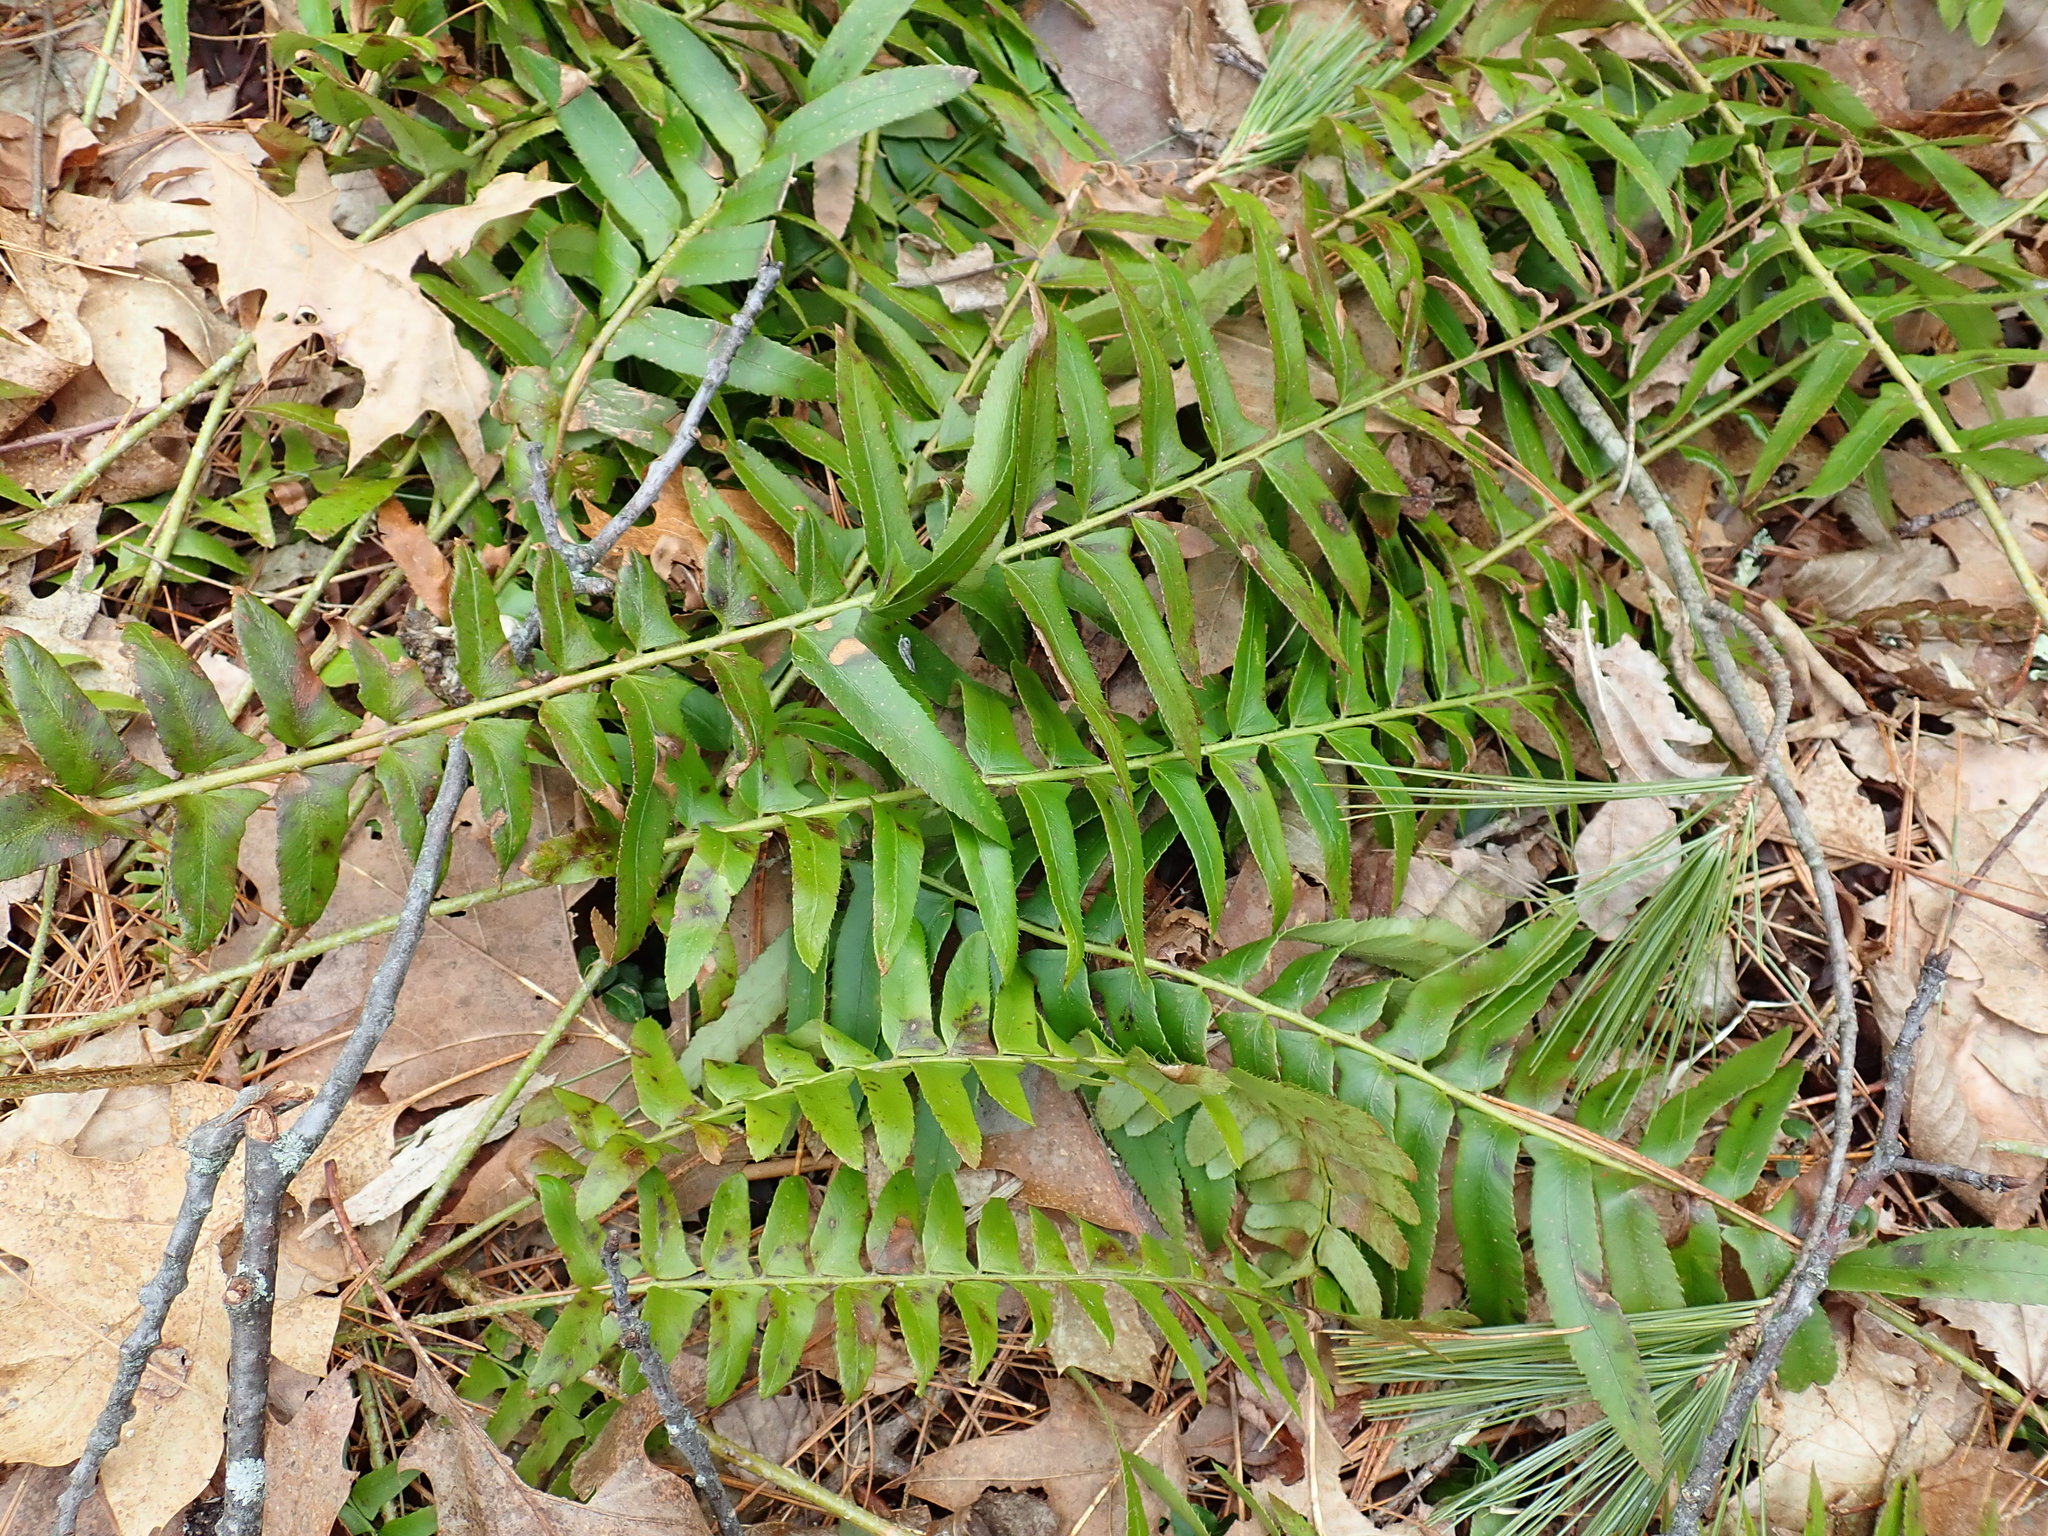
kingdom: Plantae
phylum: Tracheophyta
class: Polypodiopsida
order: Polypodiales
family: Dryopteridaceae
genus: Polystichum
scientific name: Polystichum acrostichoides
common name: Christmas fern
